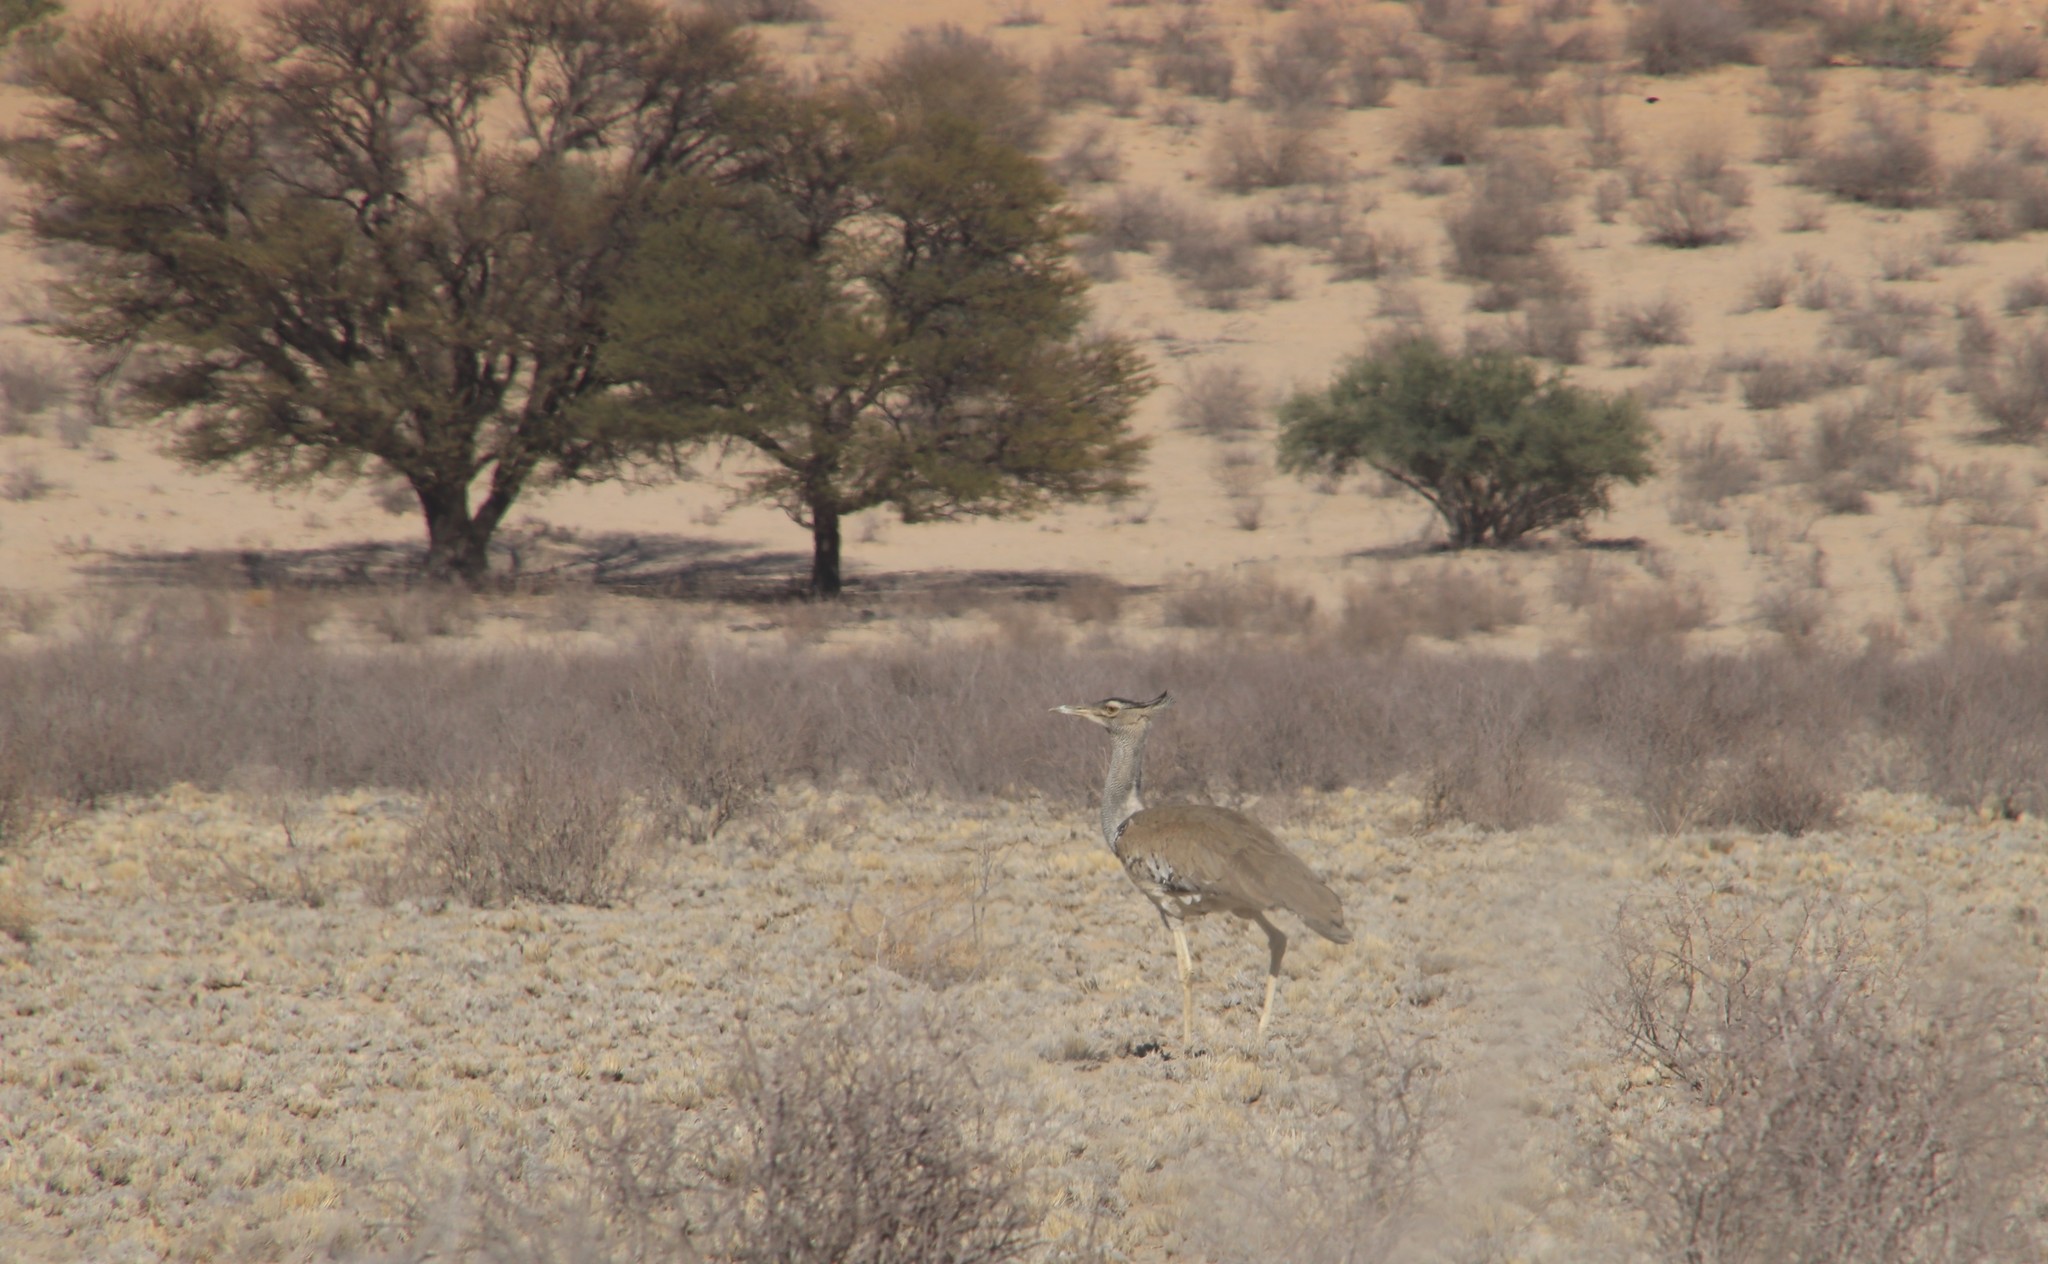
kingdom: Animalia
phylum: Chordata
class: Aves
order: Otidiformes
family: Otididae
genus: Ardeotis
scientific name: Ardeotis kori
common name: Kori bustard
